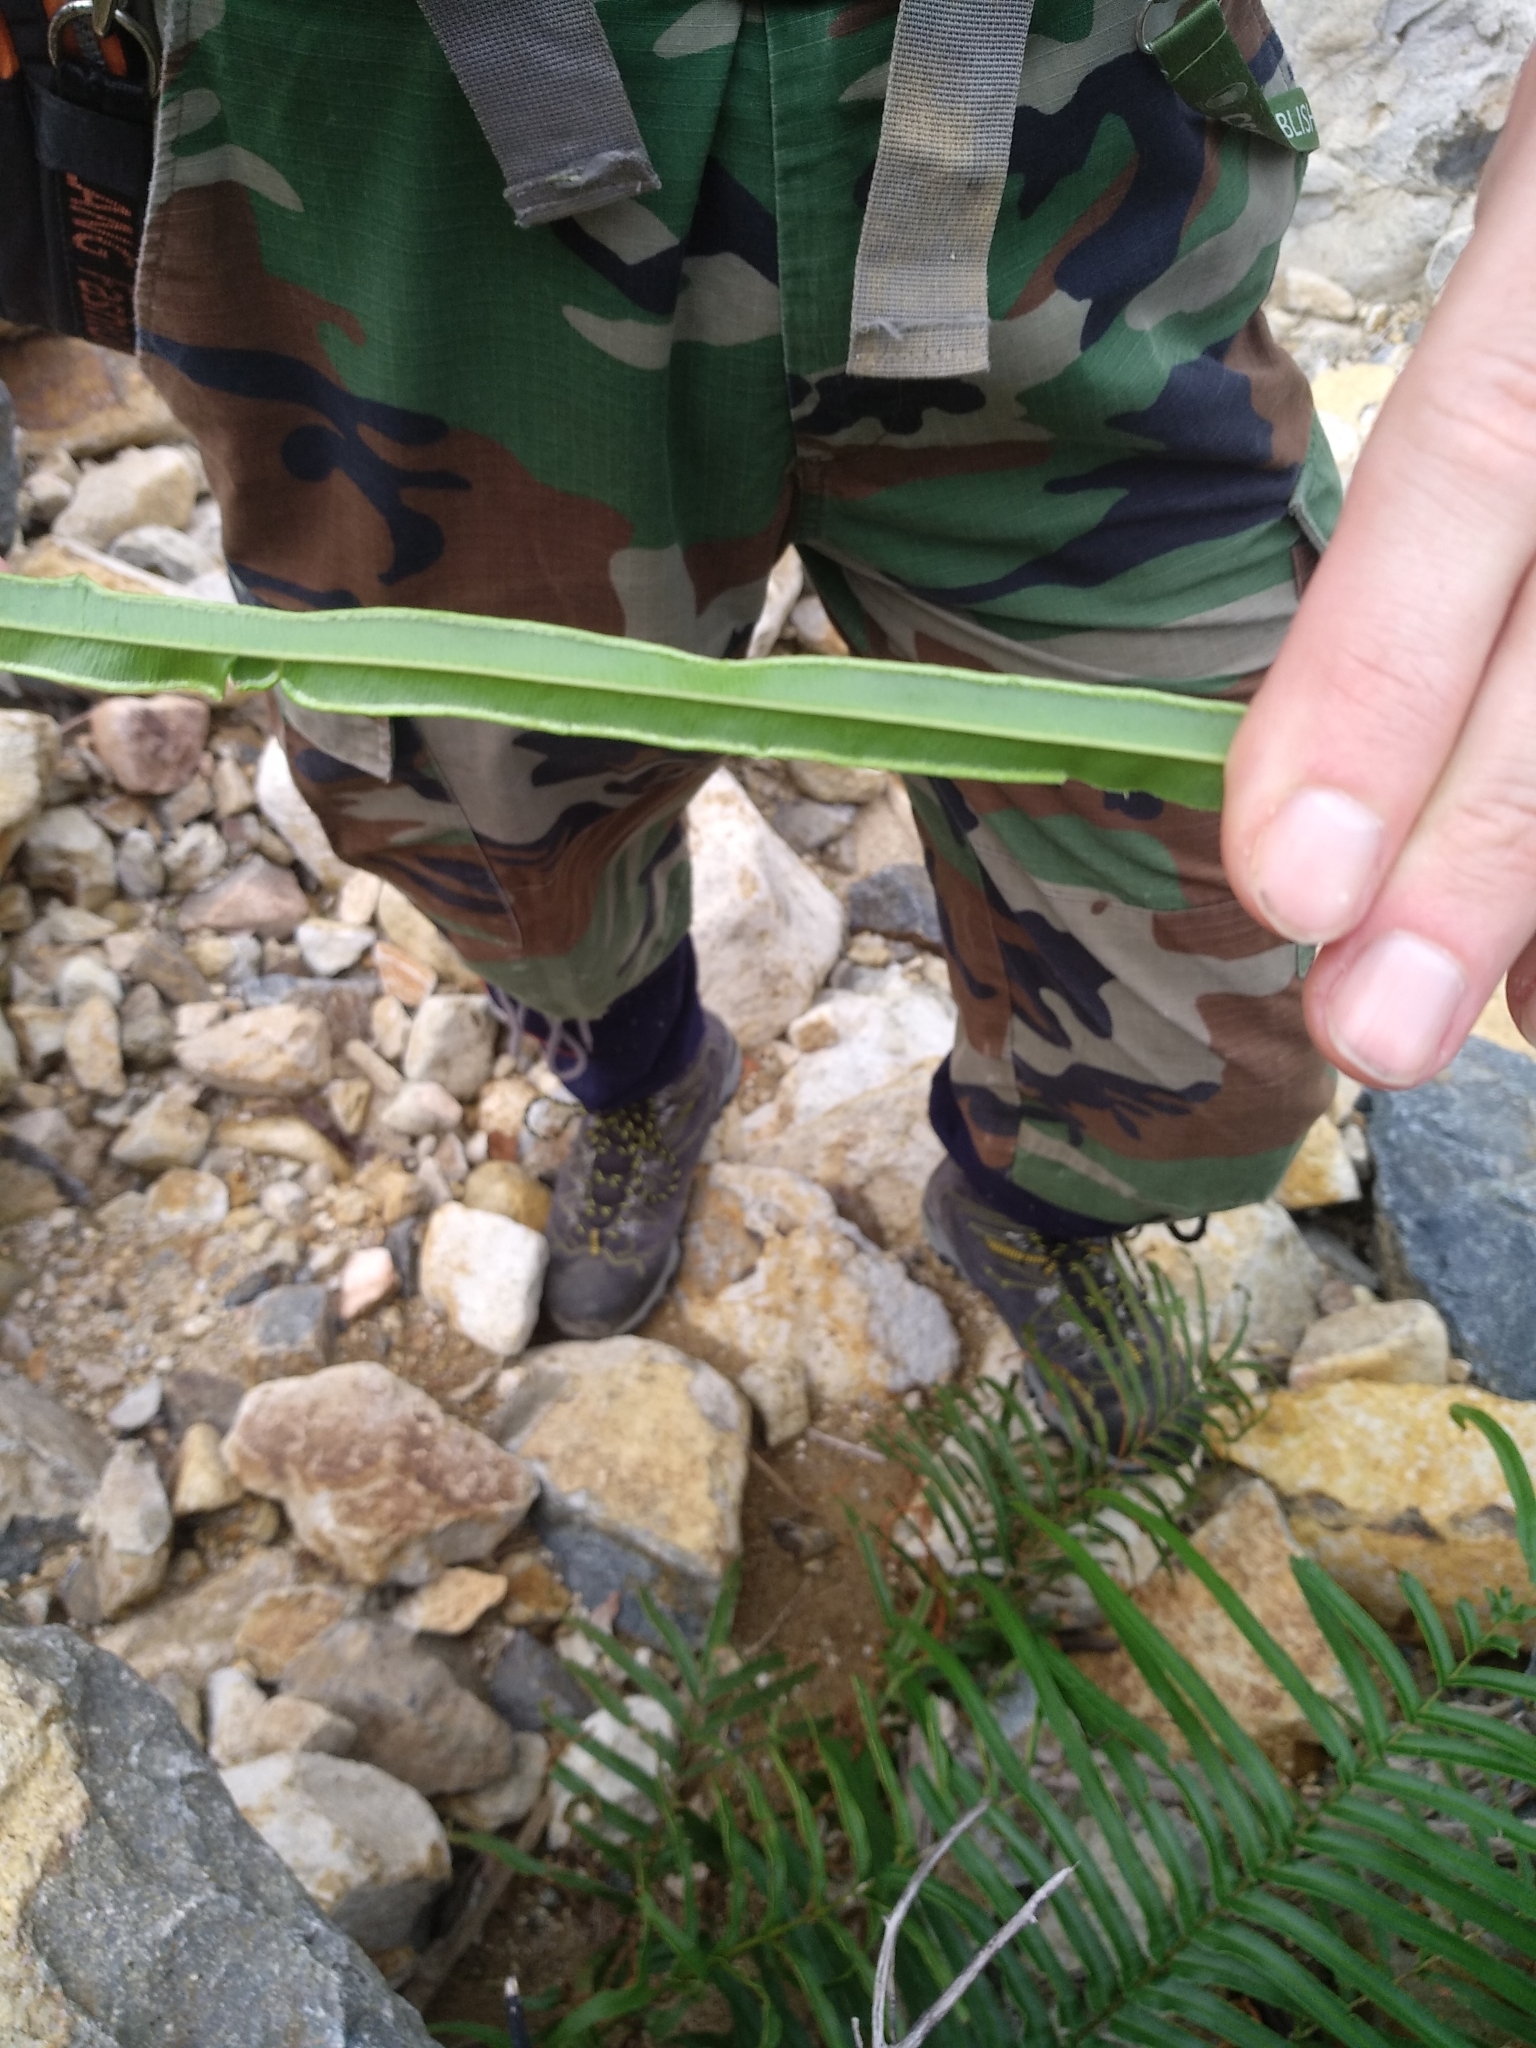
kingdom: Plantae
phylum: Tracheophyta
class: Polypodiopsida
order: Polypodiales
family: Pteridaceae
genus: Pteris
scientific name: Pteris vittata
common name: Ladder brake
